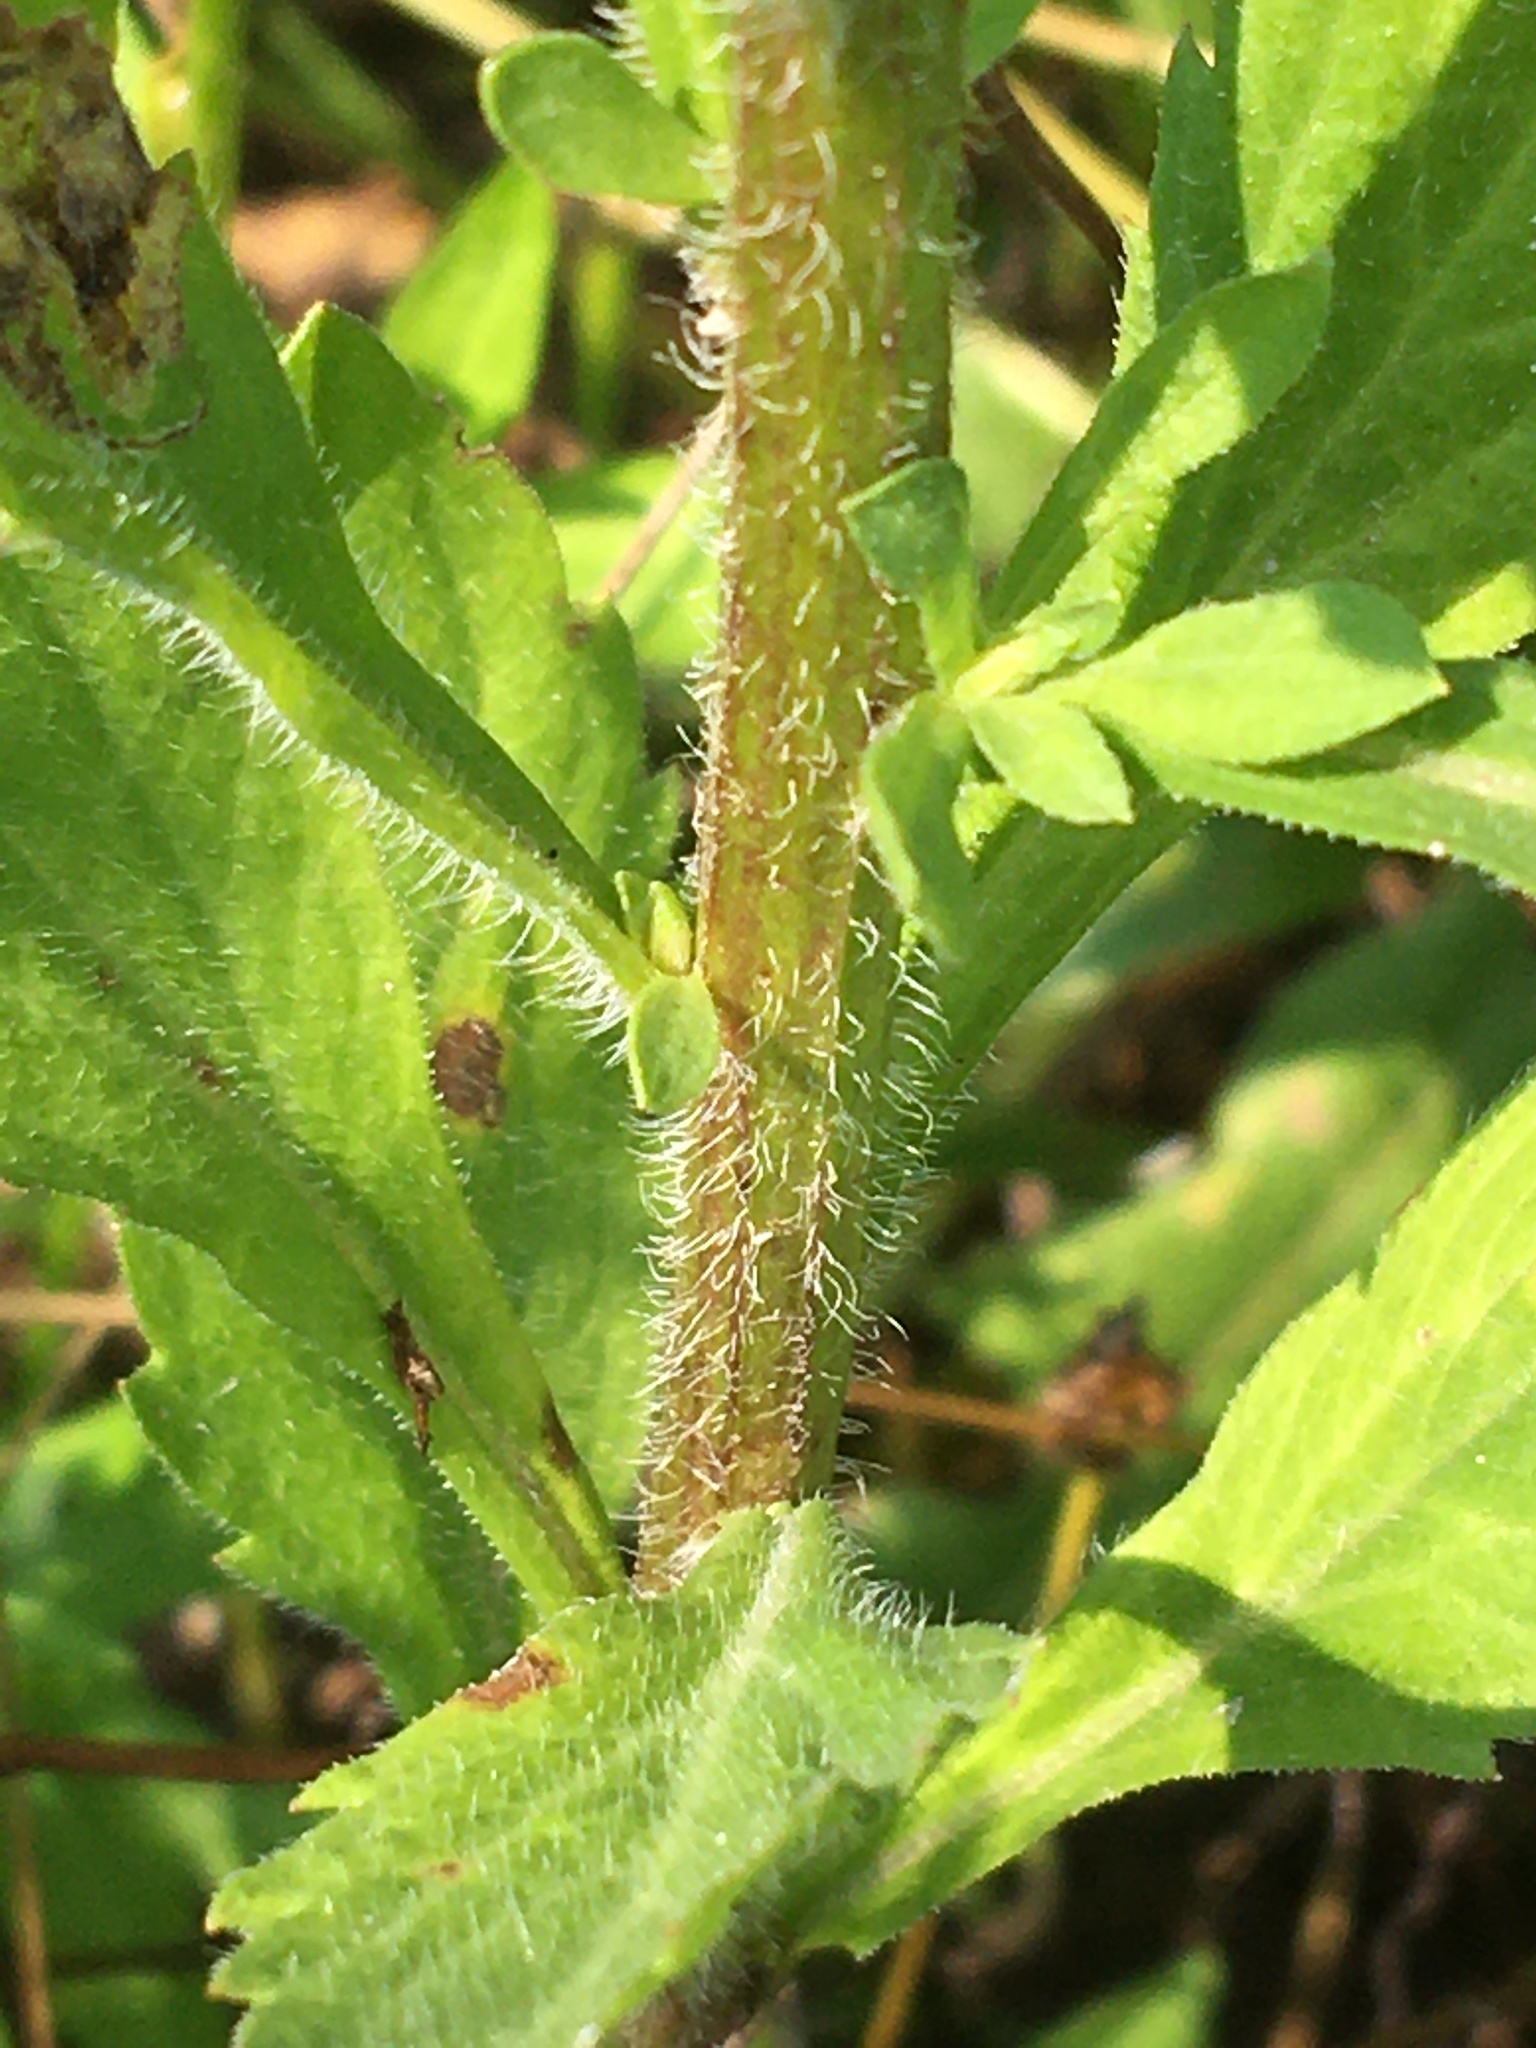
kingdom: Plantae
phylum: Tracheophyta
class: Magnoliopsida
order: Asterales
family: Asteraceae
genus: Erigeron
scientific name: Erigeron annuus
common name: Tall fleabane
